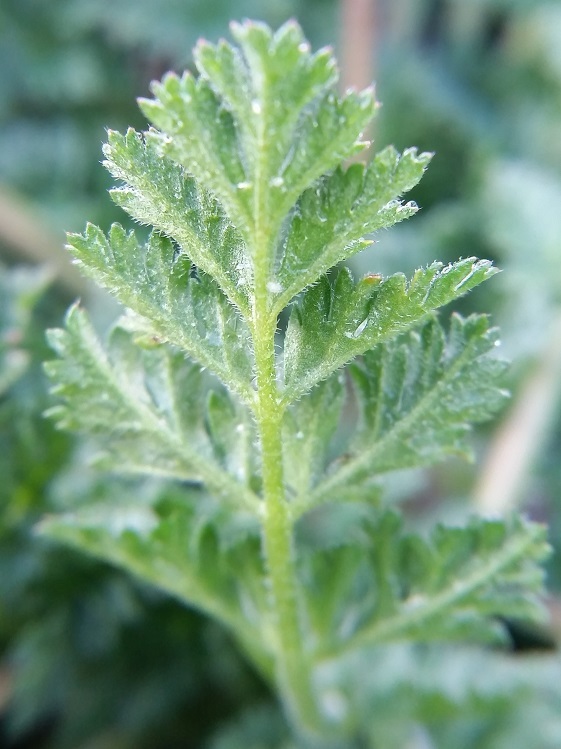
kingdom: Plantae
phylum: Tracheophyta
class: Magnoliopsida
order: Geraniales
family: Geraniaceae
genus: Erodium
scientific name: Erodium cicutarium
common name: Common stork's-bill
